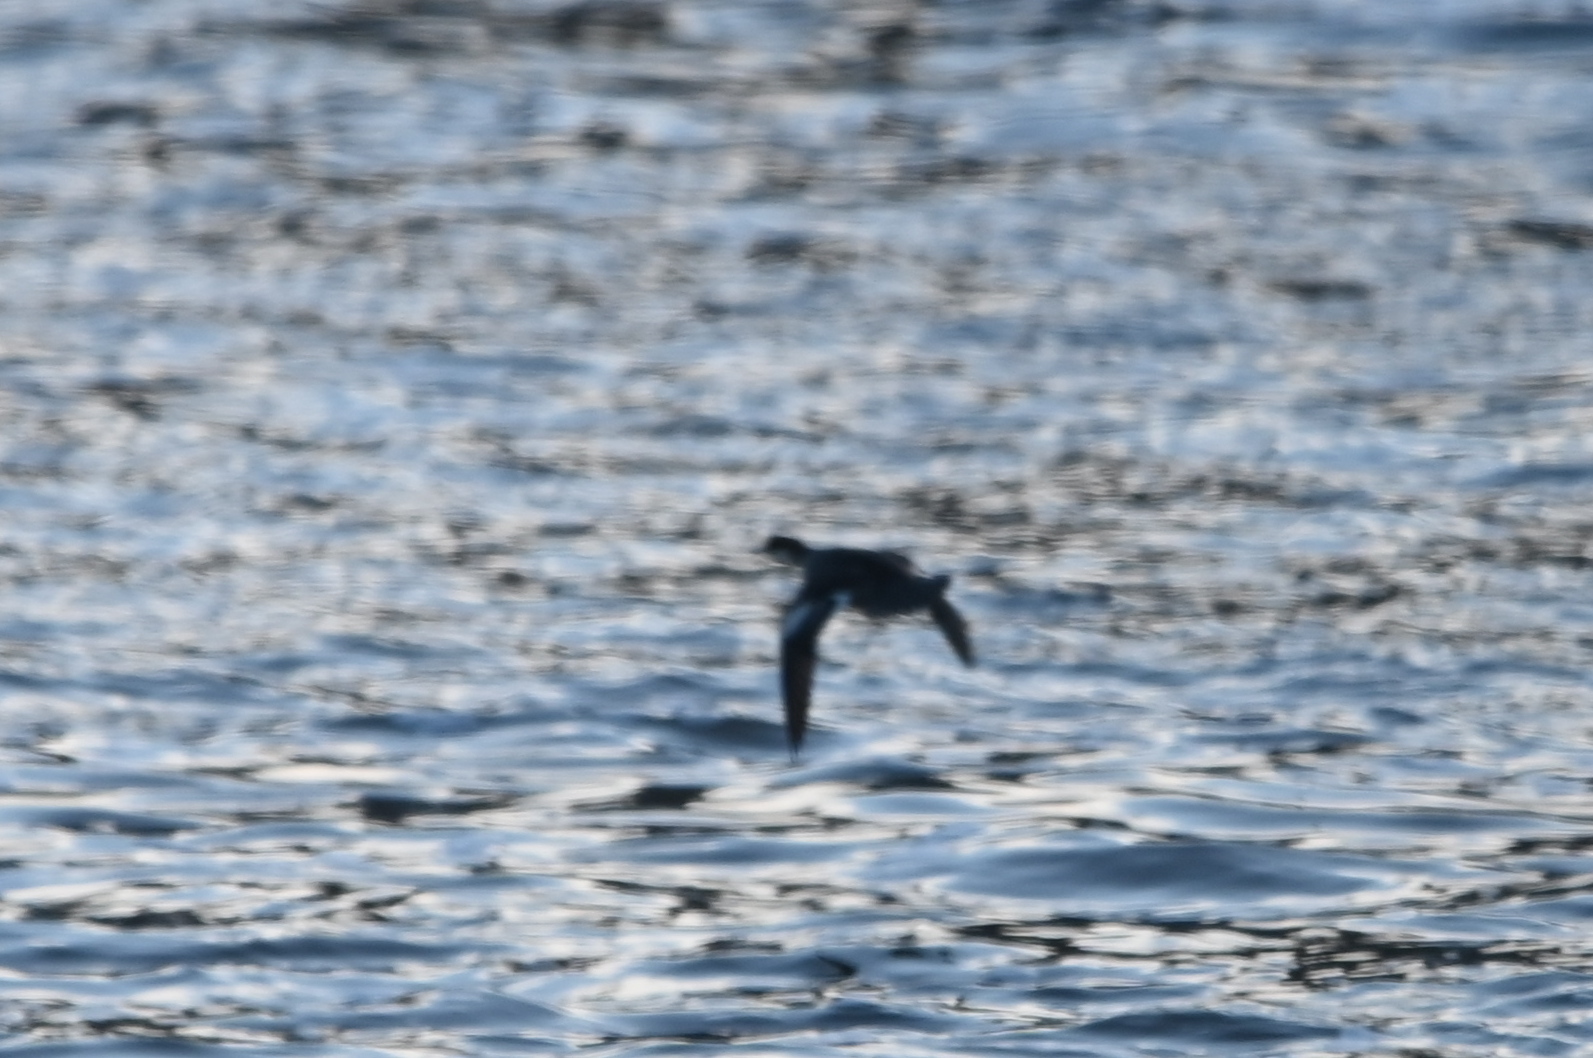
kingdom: Animalia
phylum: Chordata
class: Aves
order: Anseriformes
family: Anatidae
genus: Mergellus
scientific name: Mergellus albellus
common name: Smew
